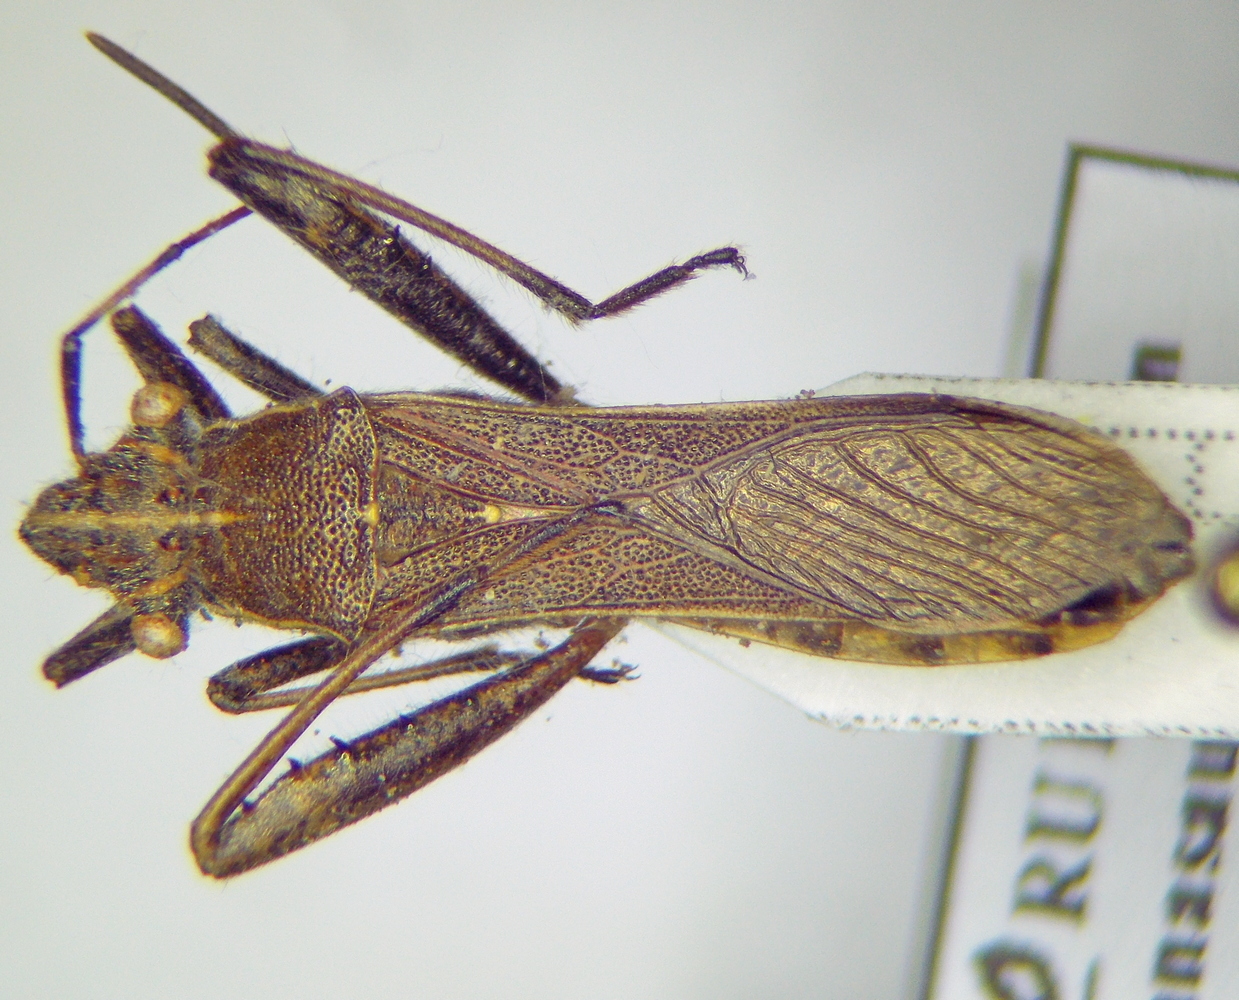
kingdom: Animalia
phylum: Arthropoda
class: Insecta
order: Hemiptera
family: Alydidae
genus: Camptopus
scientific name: Camptopus lateralis
